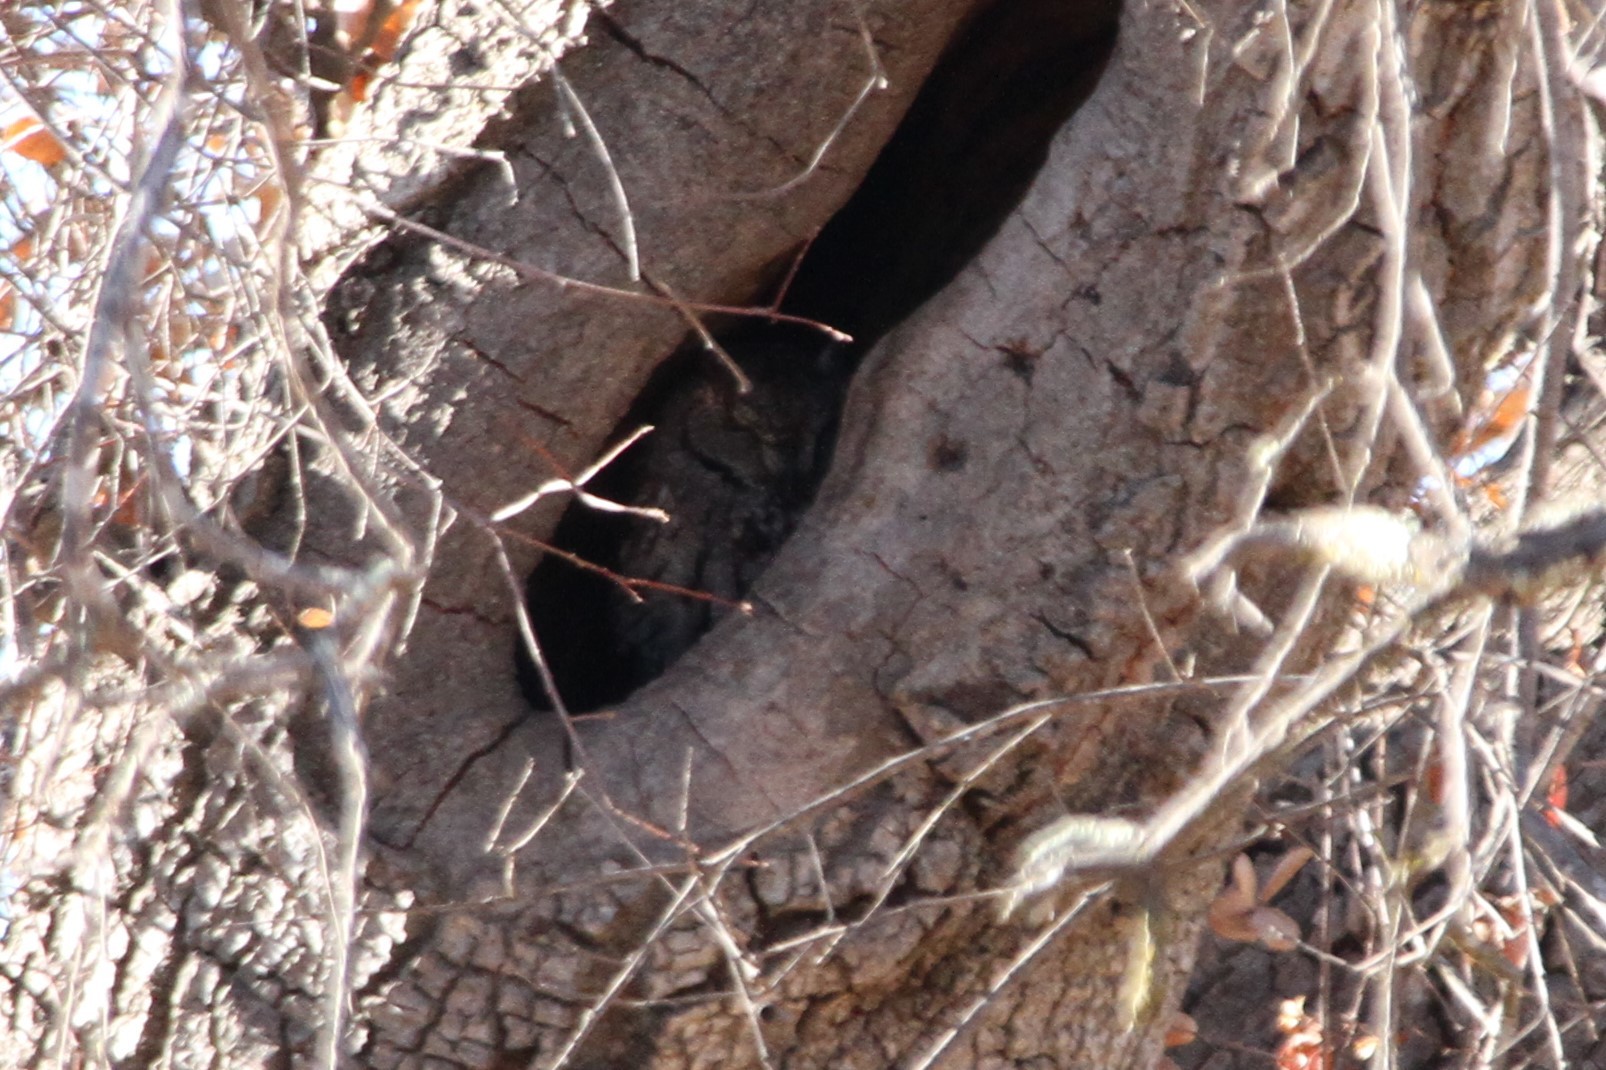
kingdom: Animalia
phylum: Chordata
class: Aves
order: Strigiformes
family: Strigidae
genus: Megascops
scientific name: Megascops kennicottii
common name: Western screech-owl
